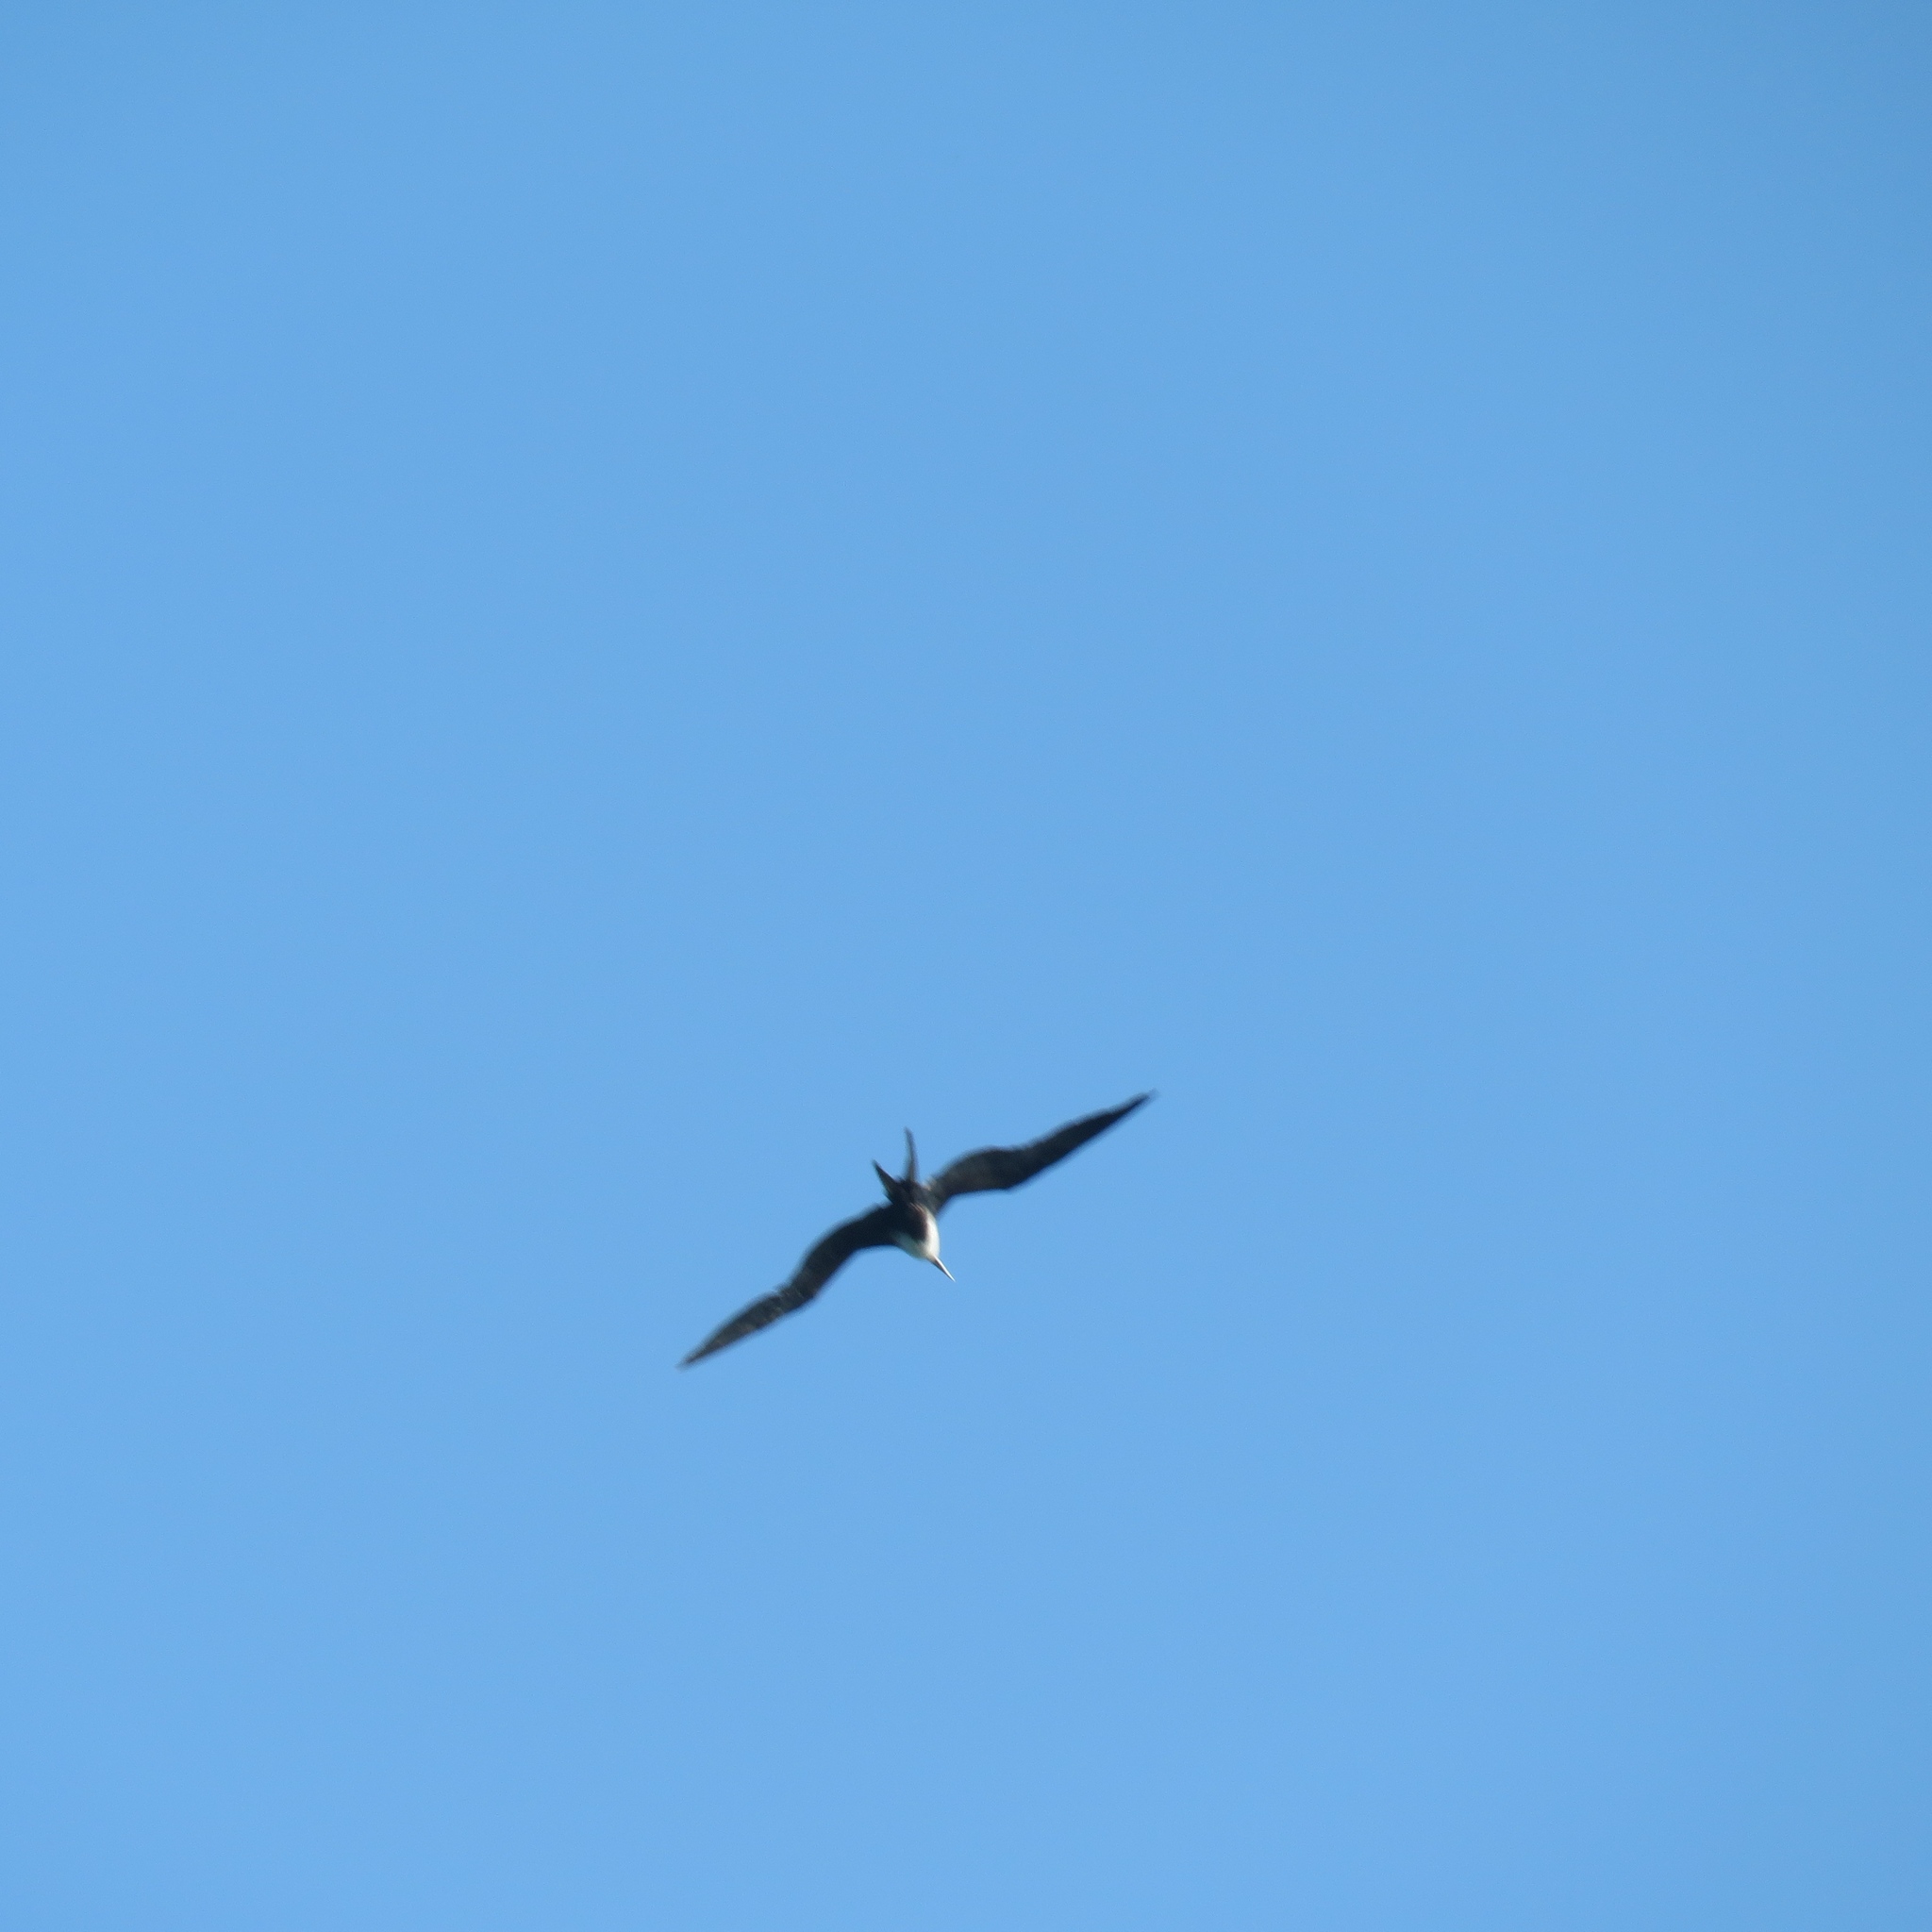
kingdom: Animalia
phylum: Chordata
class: Aves
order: Suliformes
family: Fregatidae
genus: Fregata
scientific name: Fregata magnificens
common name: Magnificent frigatebird
